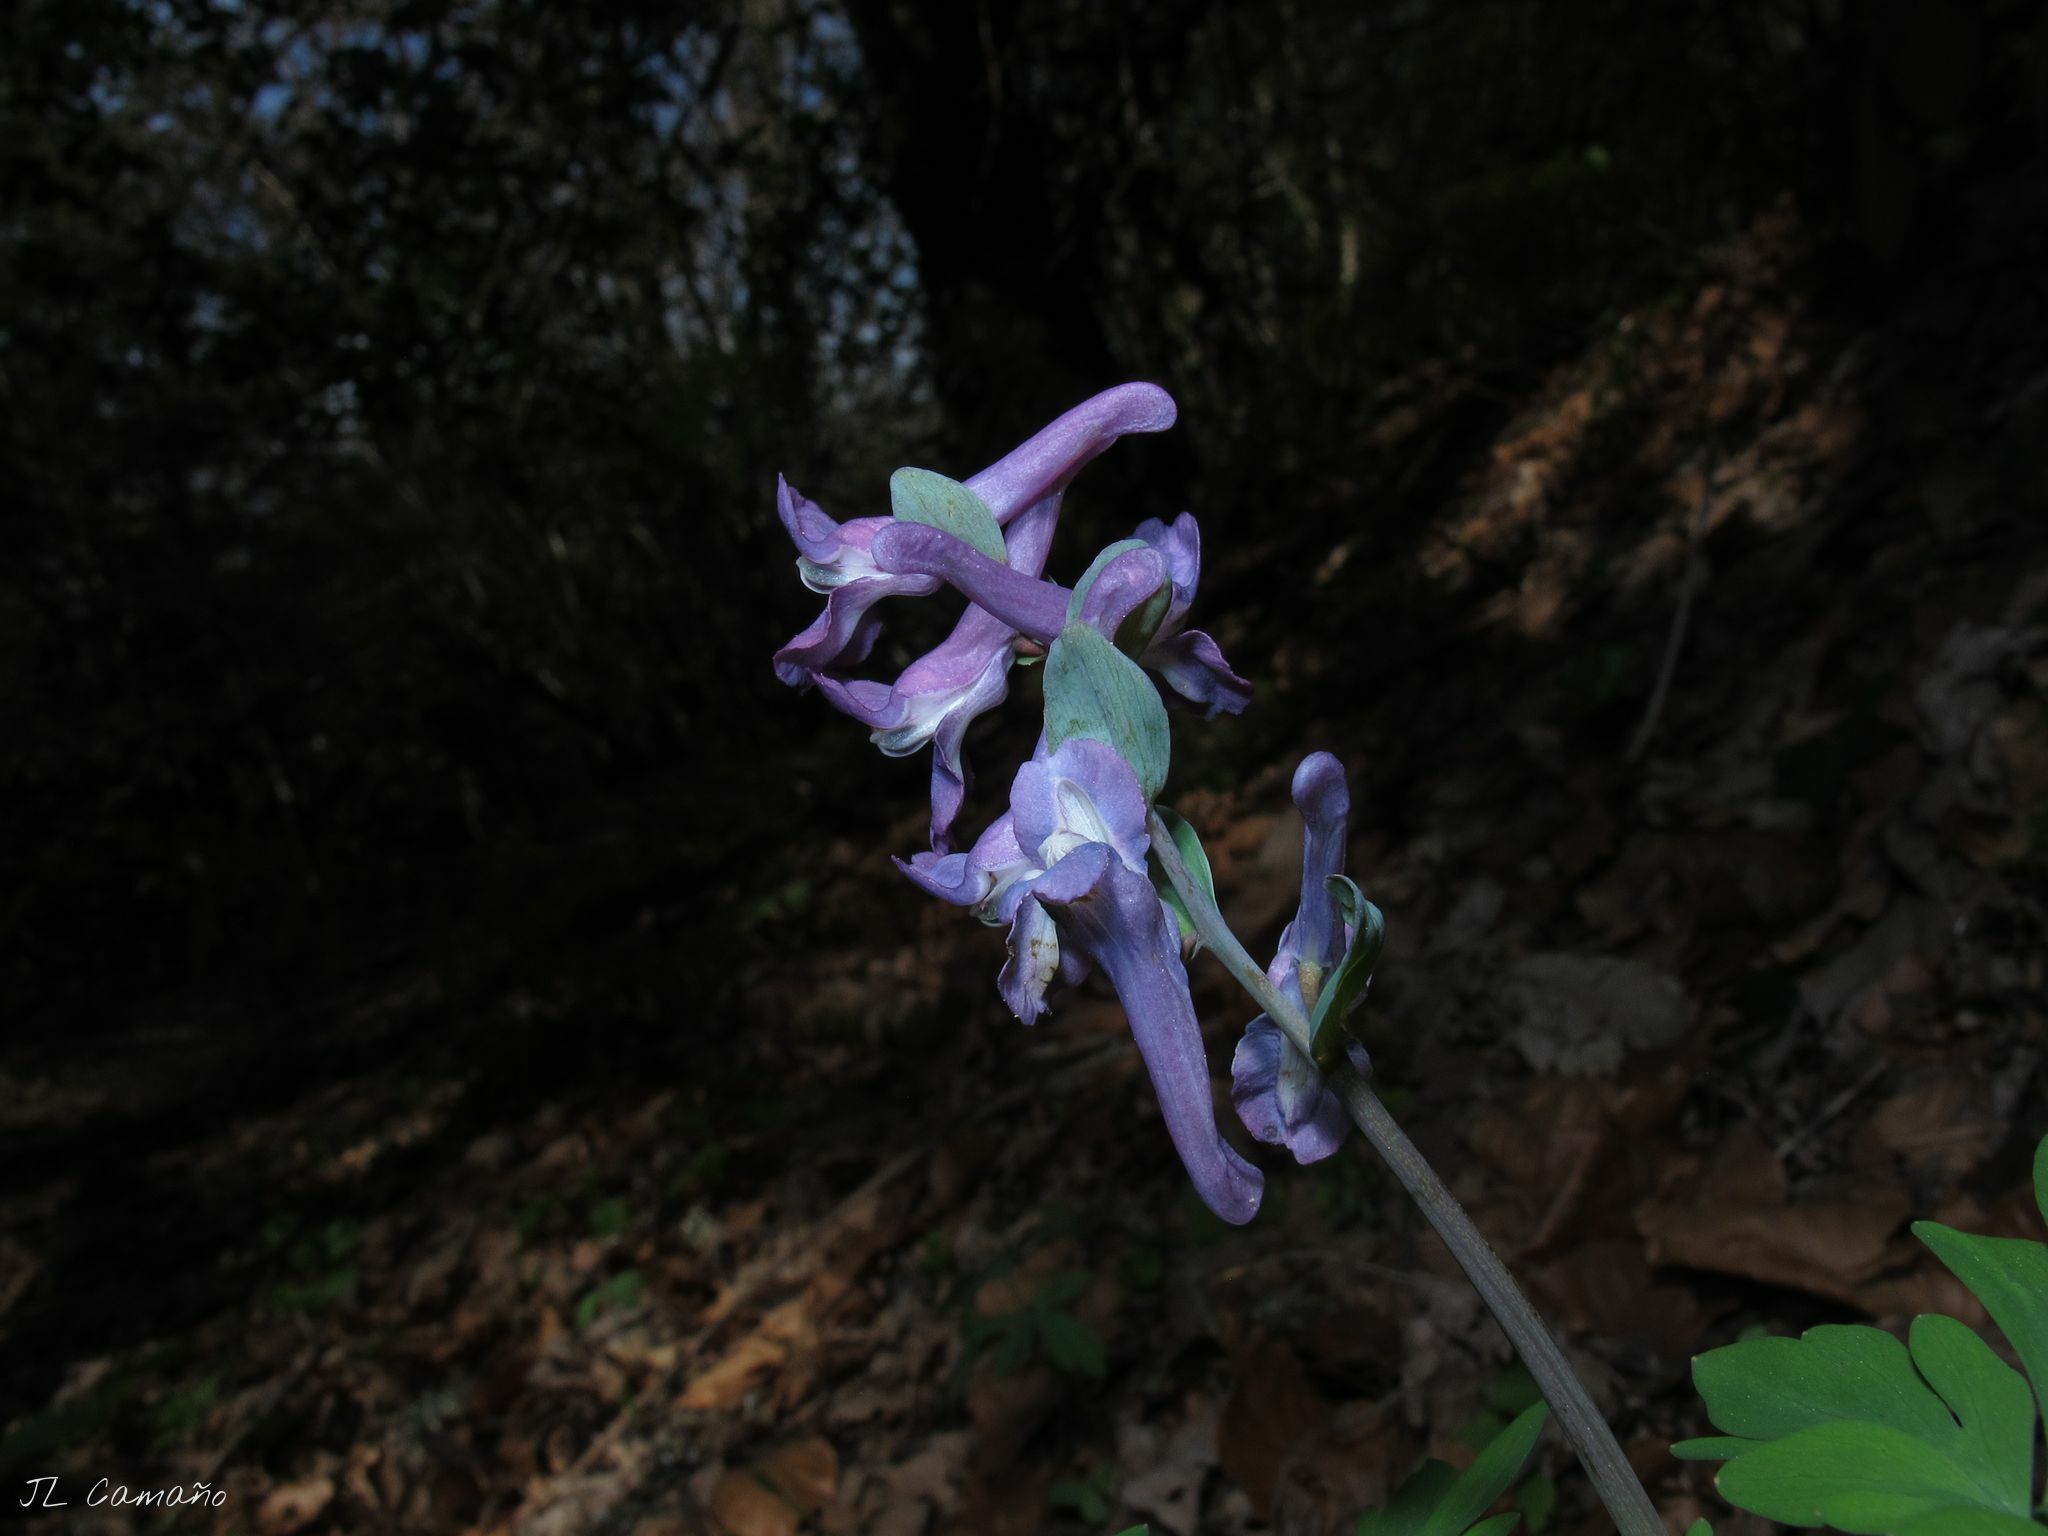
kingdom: Plantae
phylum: Tracheophyta
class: Magnoliopsida
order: Ranunculales
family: Papaveraceae
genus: Corydalis
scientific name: Corydalis cava
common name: Hollowroot
